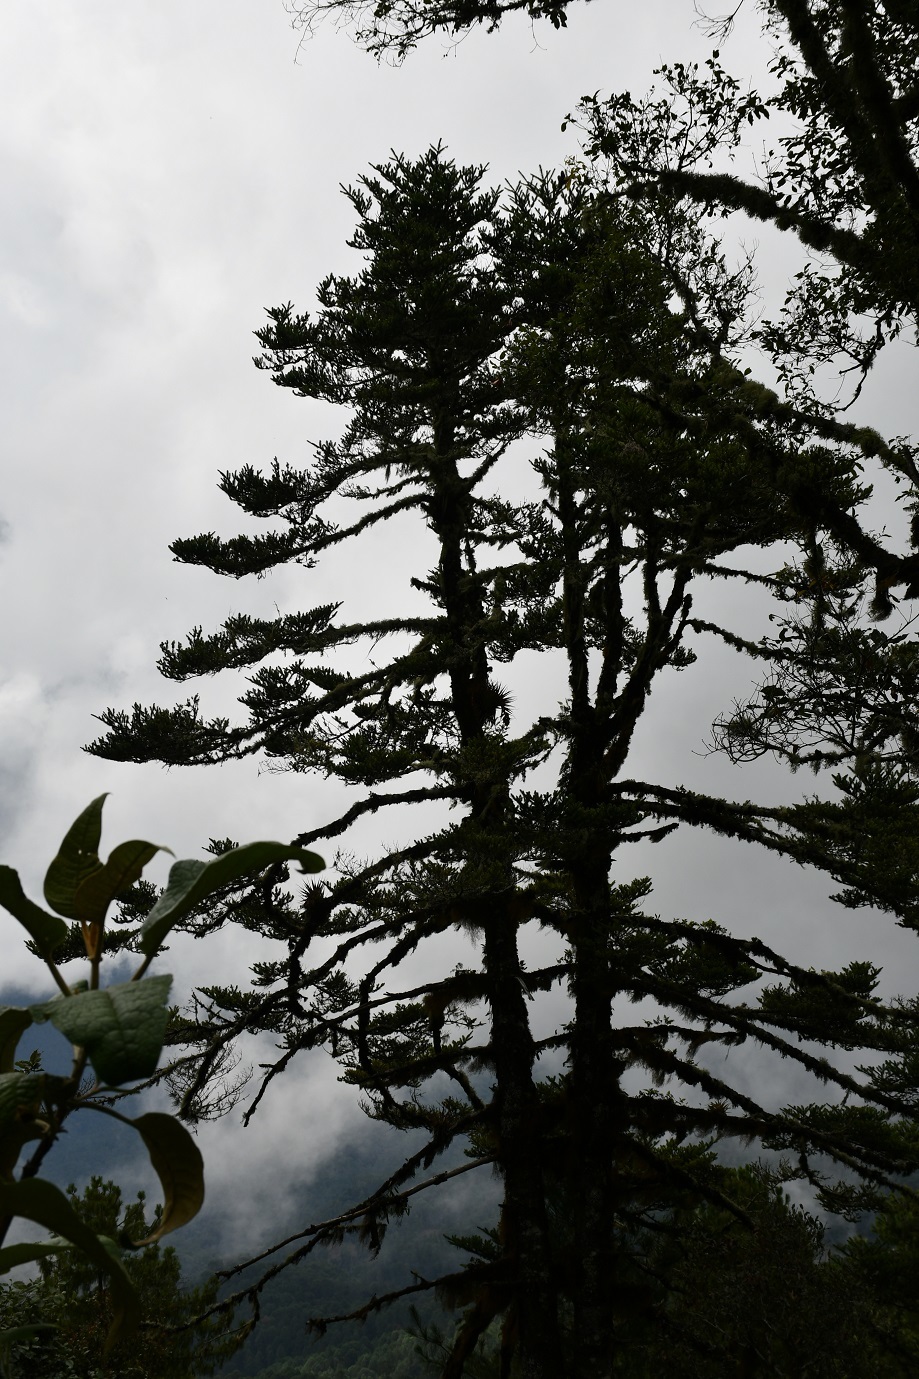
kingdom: Plantae
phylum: Tracheophyta
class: Pinopsida
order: Pinales
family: Pinaceae
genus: Abies
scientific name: Abies guatemalensis
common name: Guatemalan fir
